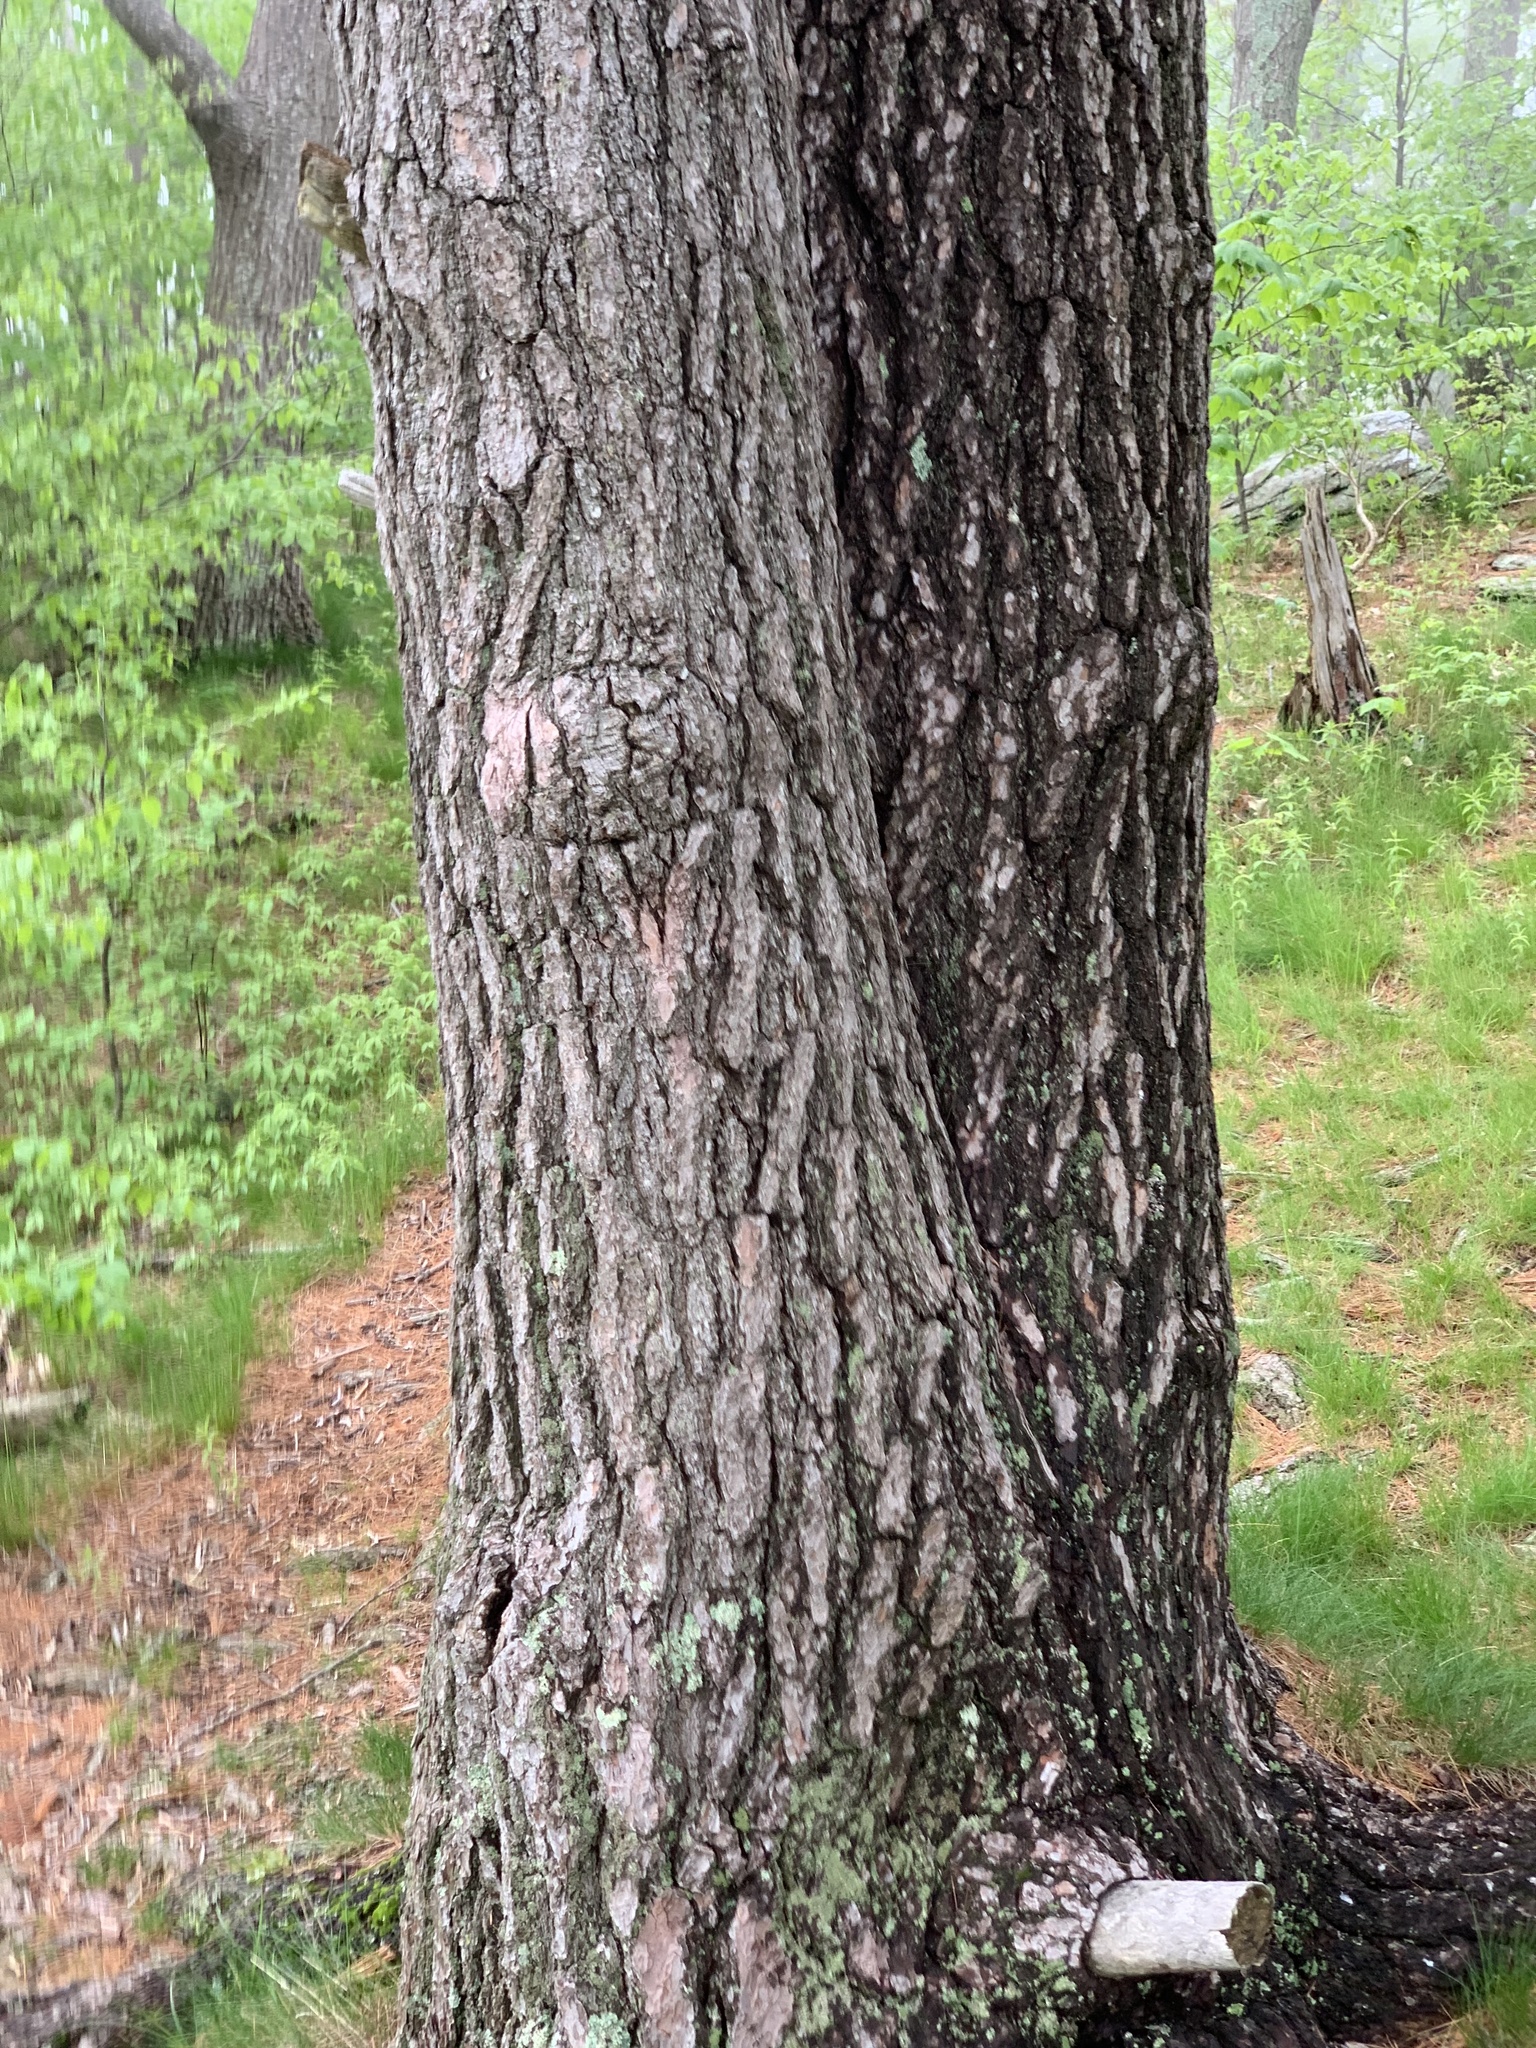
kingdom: Plantae
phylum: Tracheophyta
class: Pinopsida
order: Pinales
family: Pinaceae
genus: Pinus
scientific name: Pinus strobus
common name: Weymouth pine
